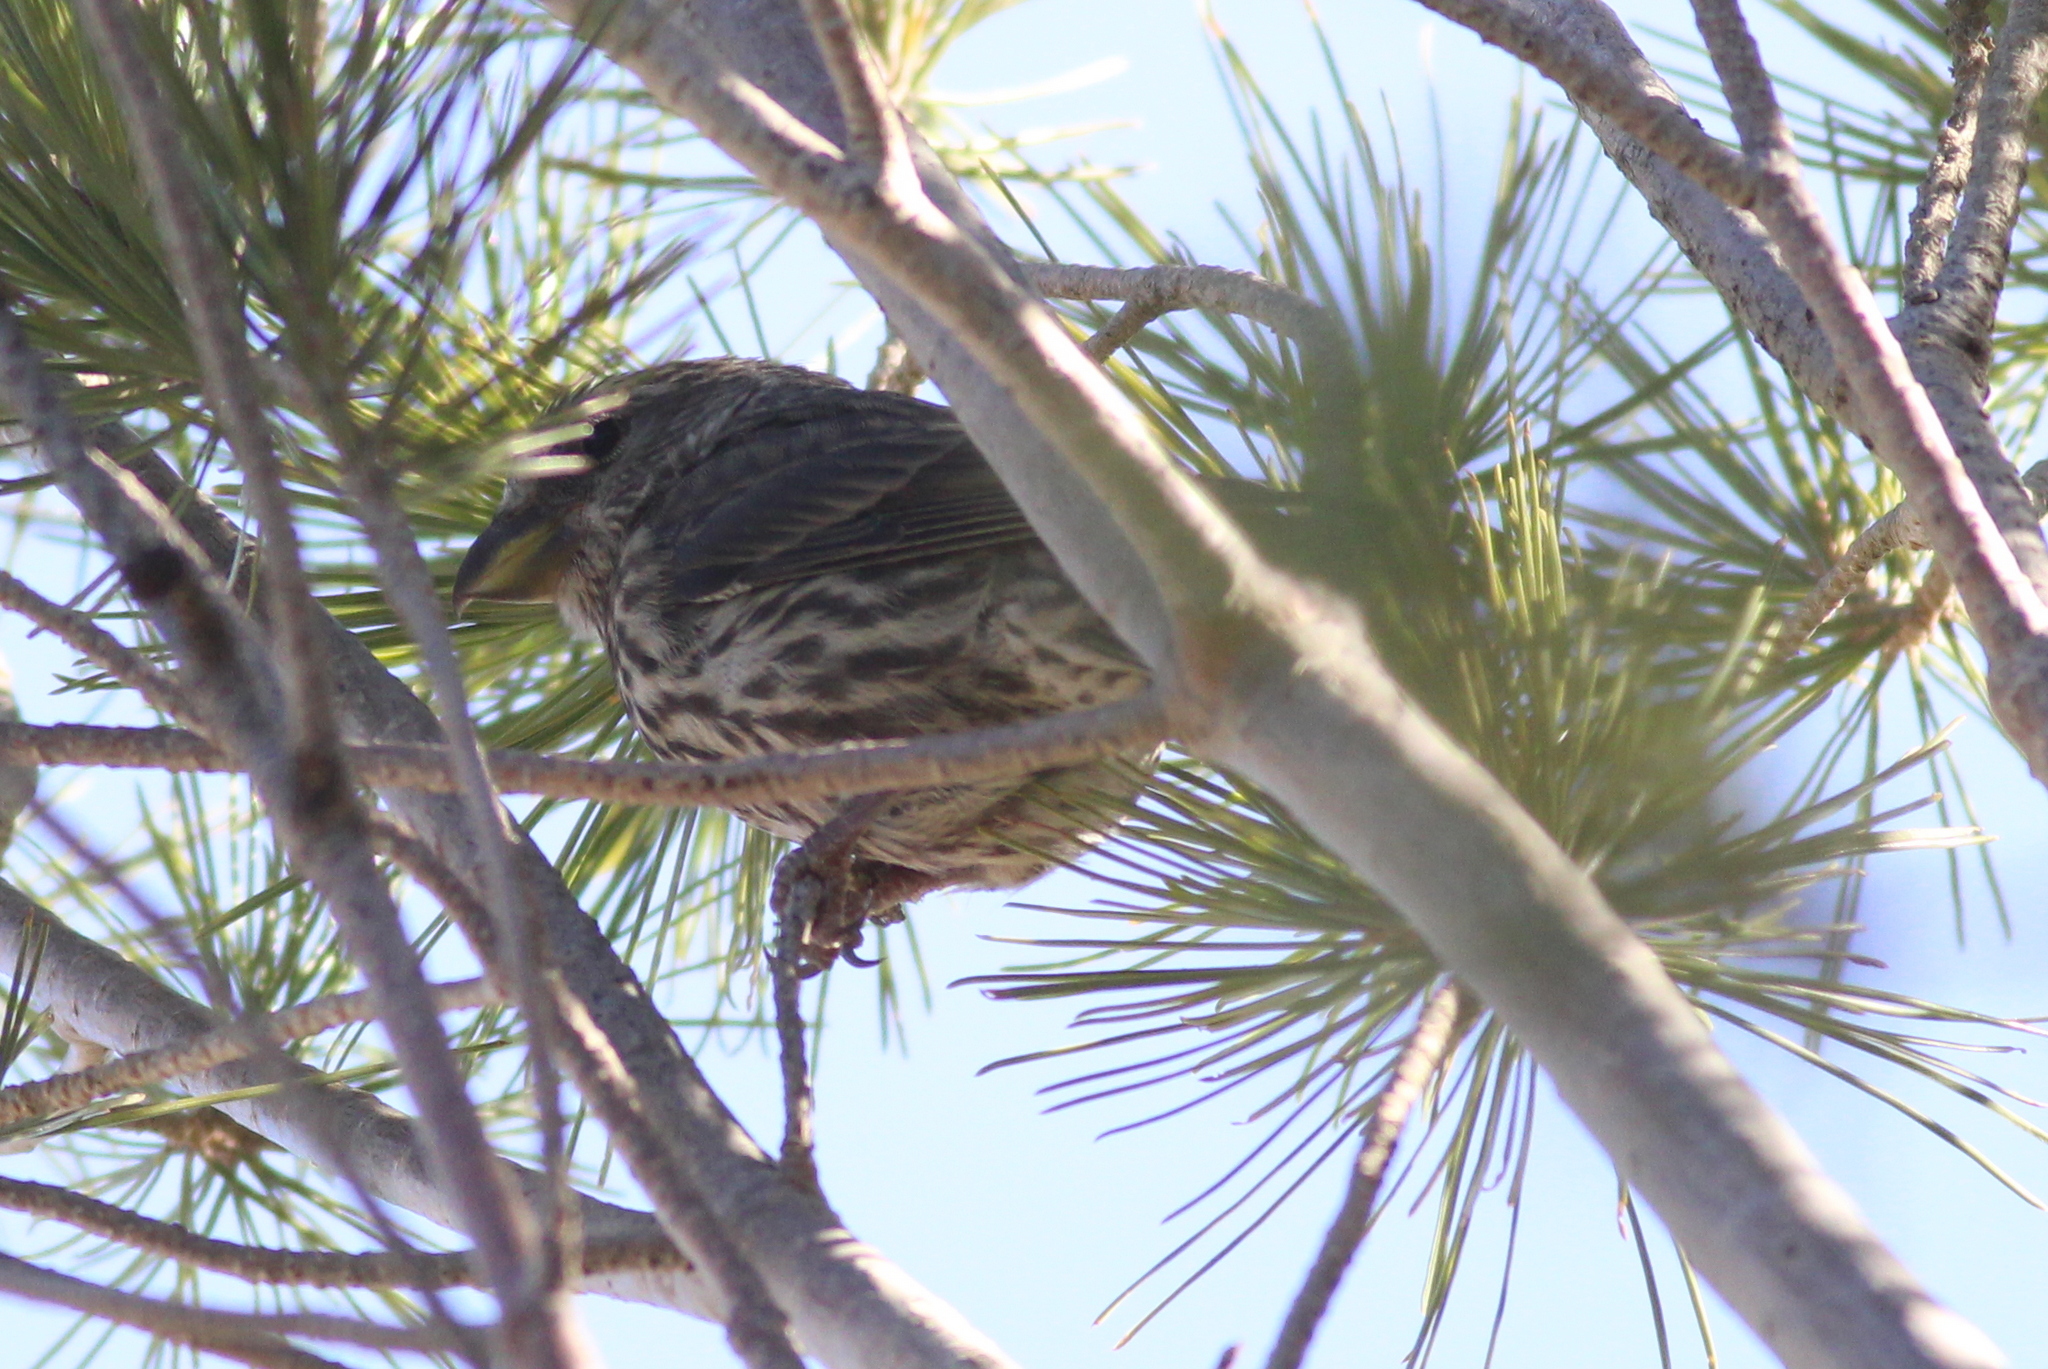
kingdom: Animalia
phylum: Chordata
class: Aves
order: Passeriformes
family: Fringillidae
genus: Loxia
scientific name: Loxia curvirostra
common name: Red crossbill
